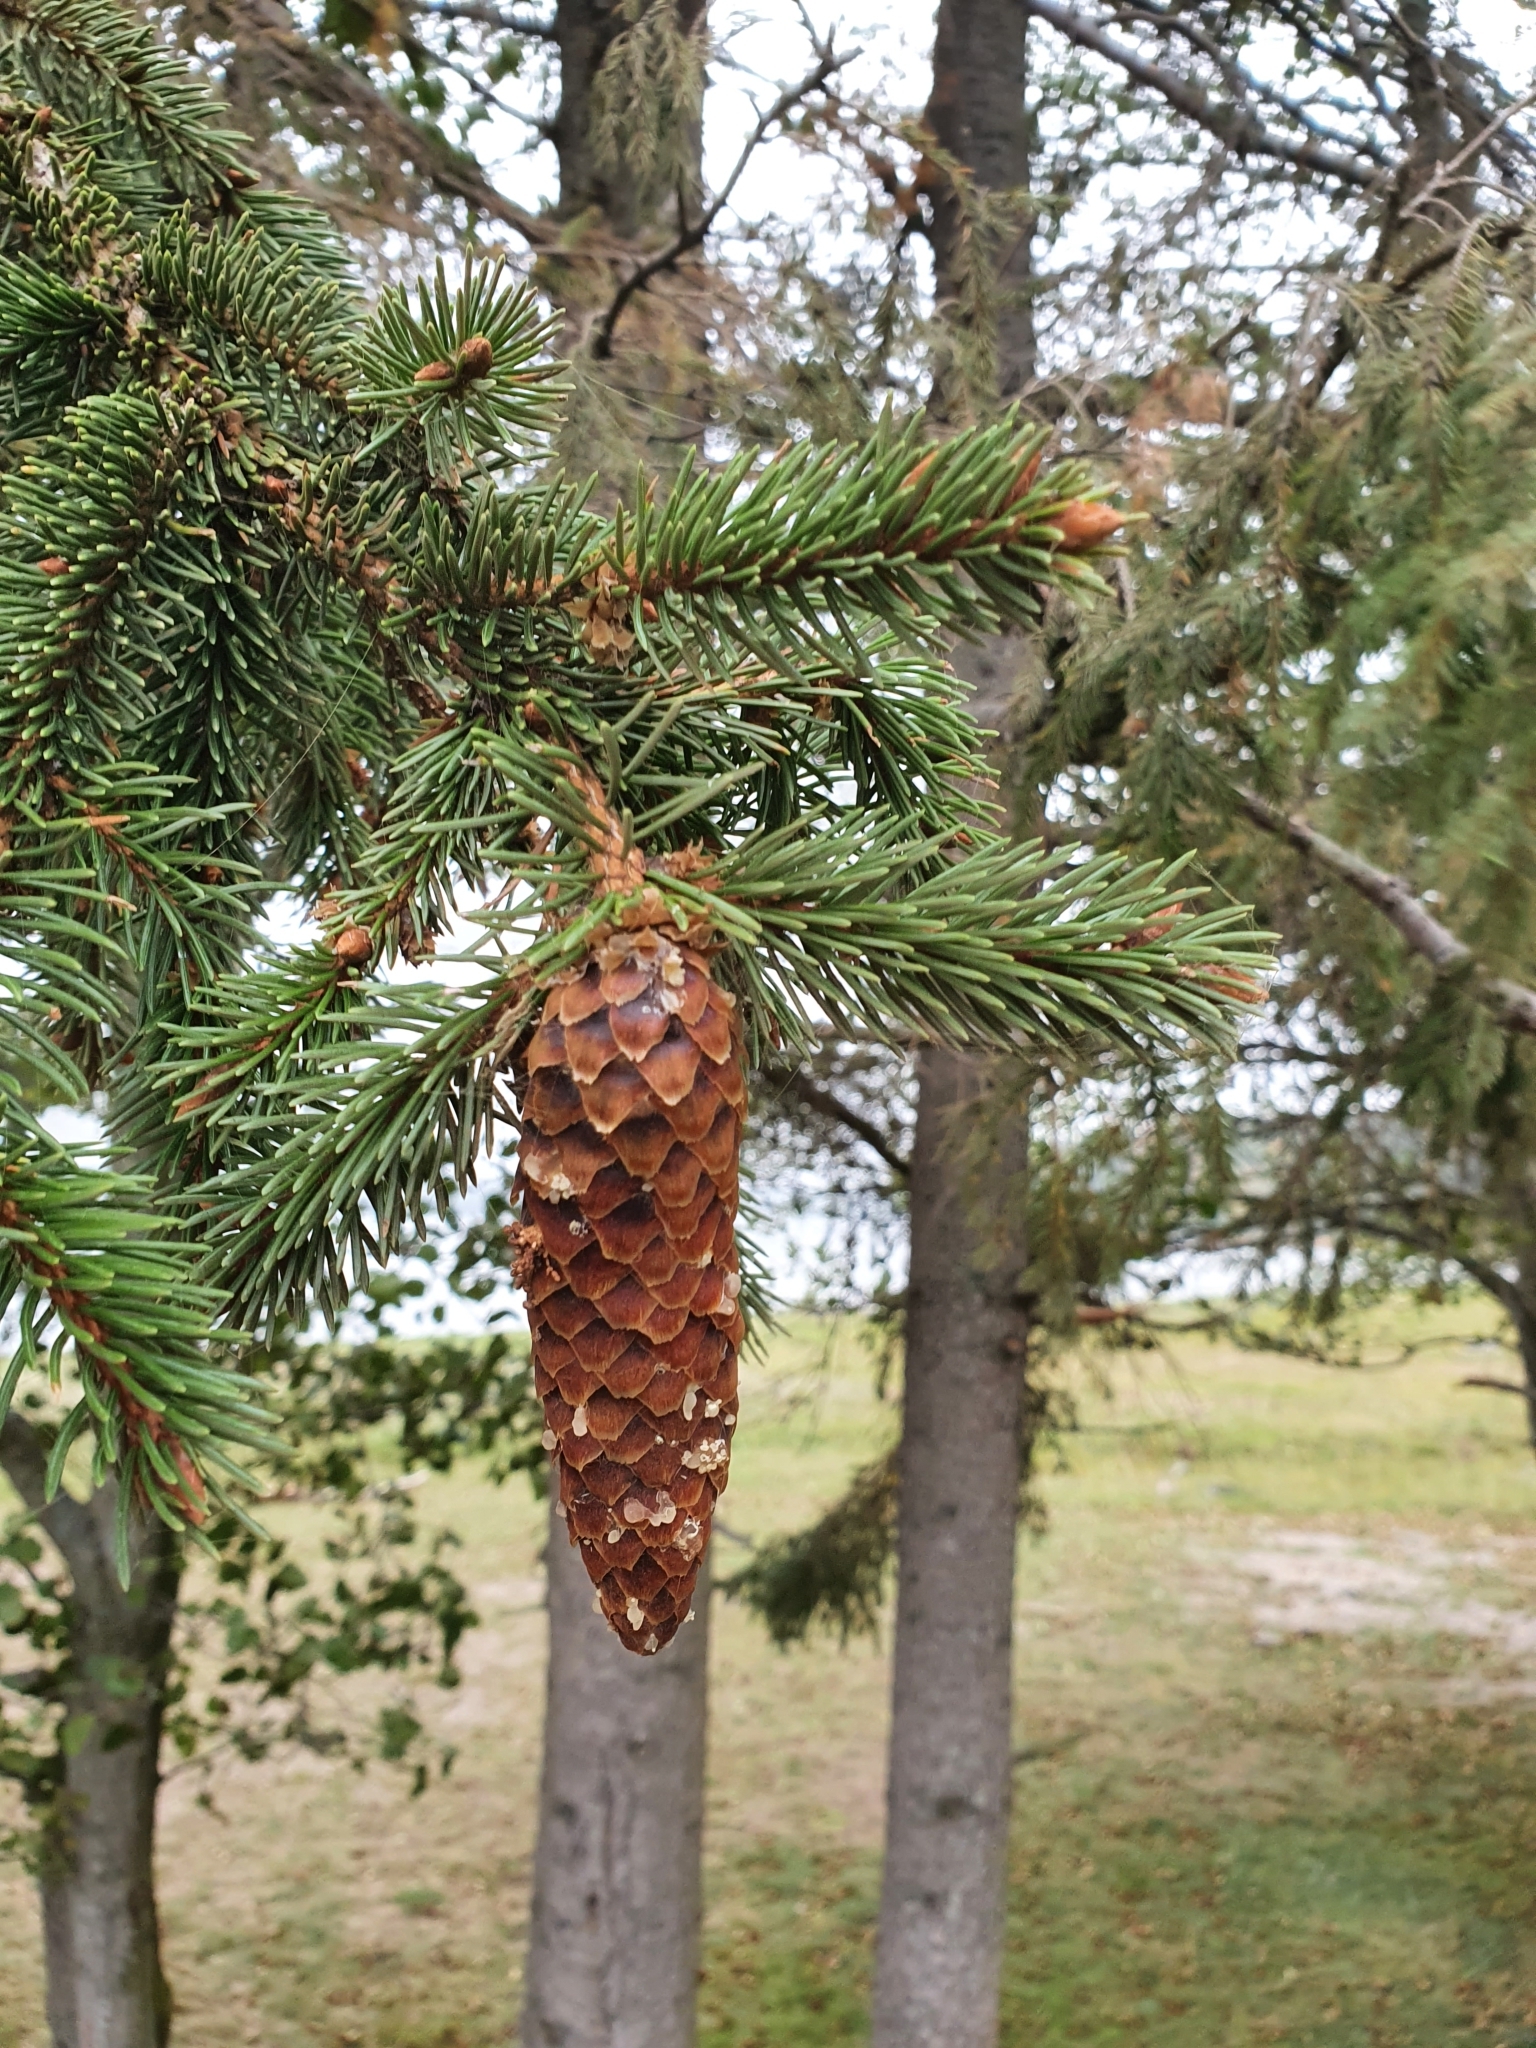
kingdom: Plantae
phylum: Tracheophyta
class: Pinopsida
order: Pinales
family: Pinaceae
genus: Picea
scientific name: Picea abies
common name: Norway spruce
